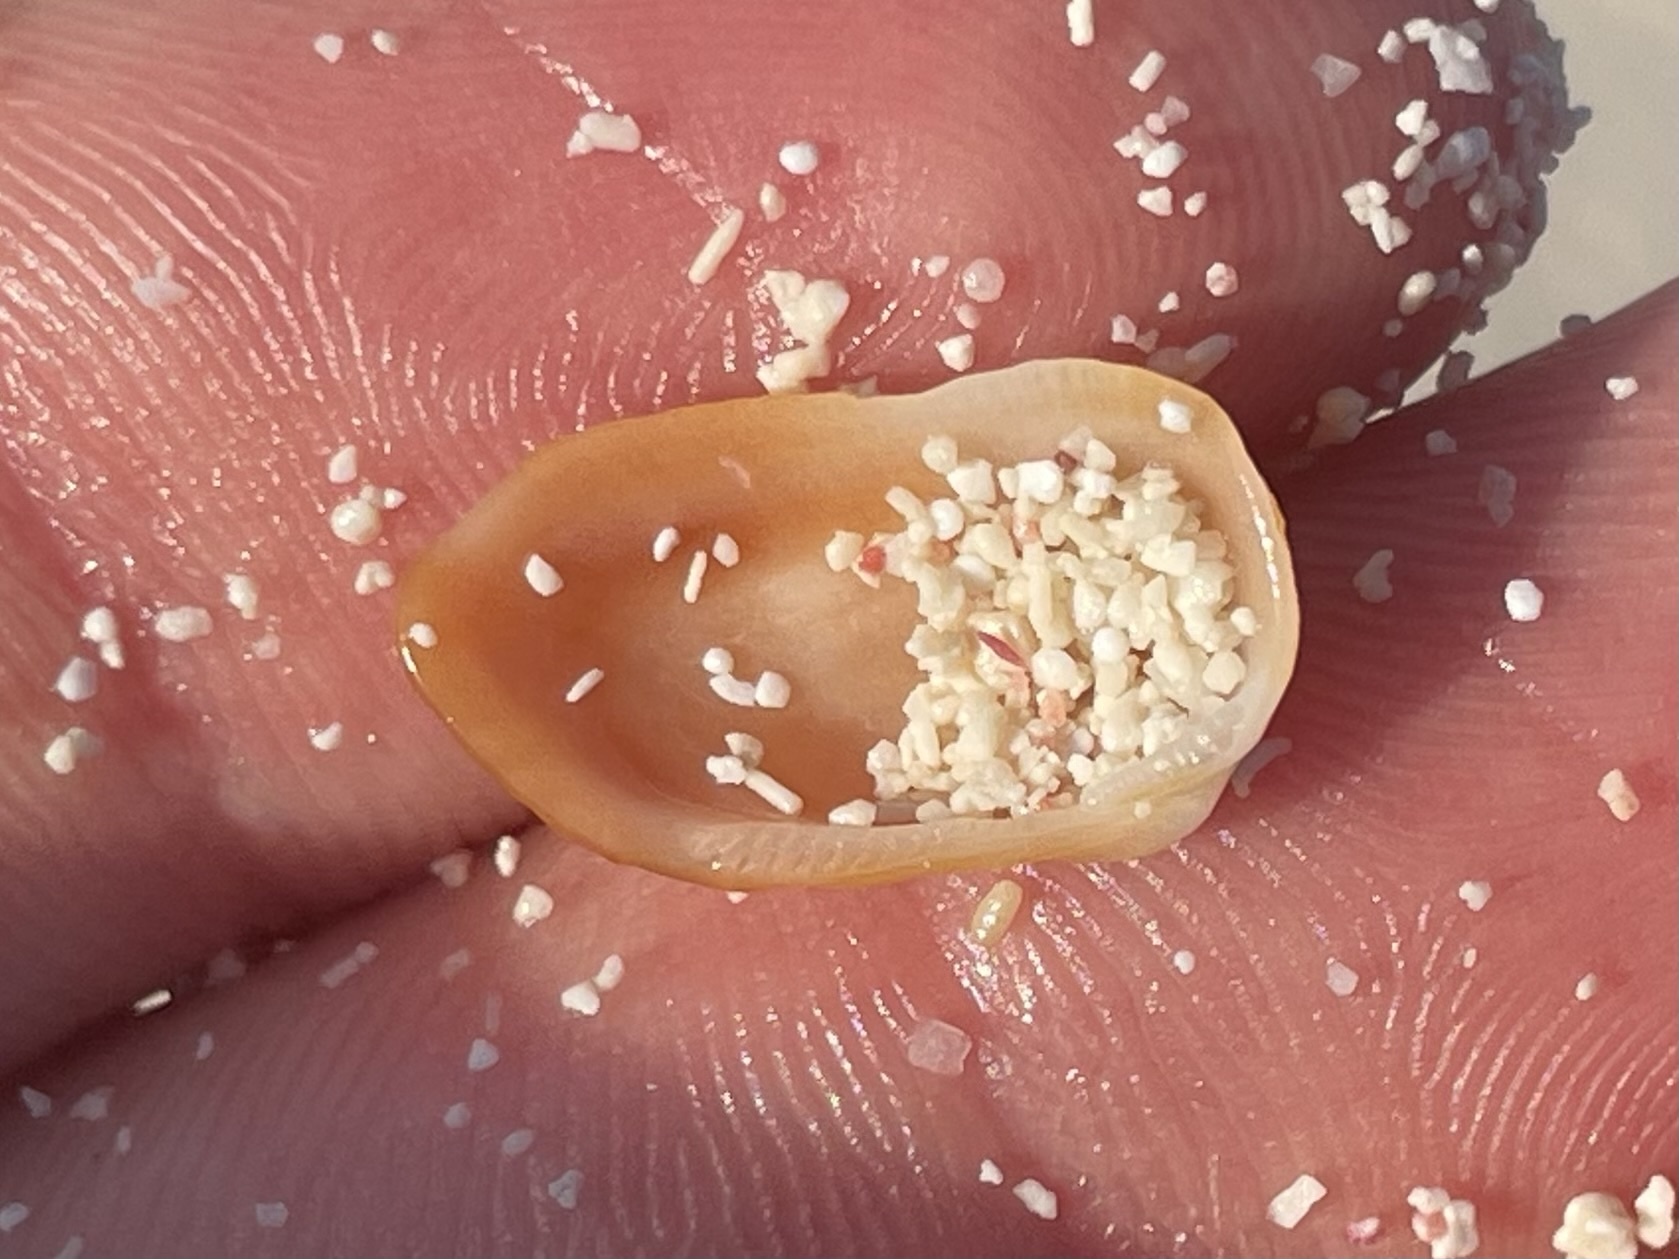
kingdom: Animalia
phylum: Mollusca
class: Bivalvia
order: Arcida
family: Arcidae
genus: Barbatia
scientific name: Barbatia domingensis
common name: White miniature ark
